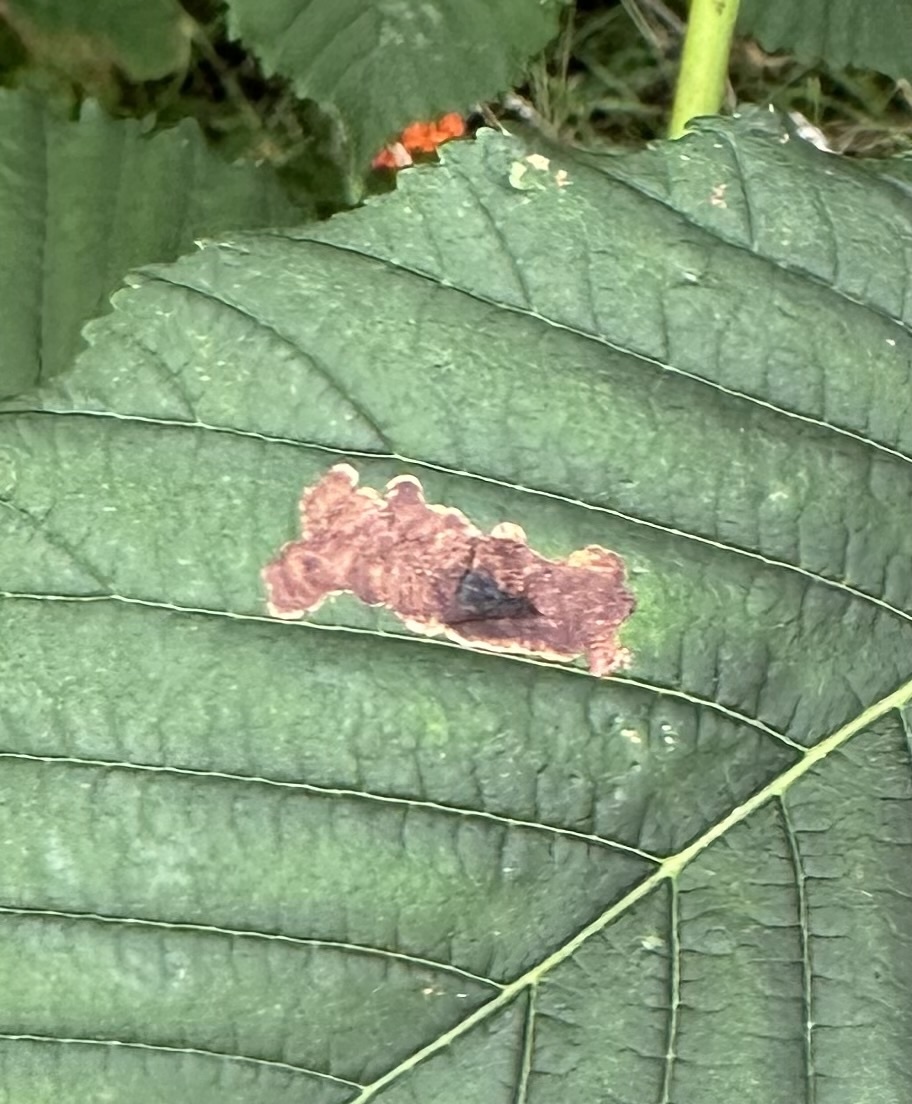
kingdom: Animalia
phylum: Arthropoda
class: Insecta
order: Lepidoptera
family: Gracillariidae
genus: Cameraria
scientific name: Cameraria ohridella
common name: Horse-chestnut leaf-miner
